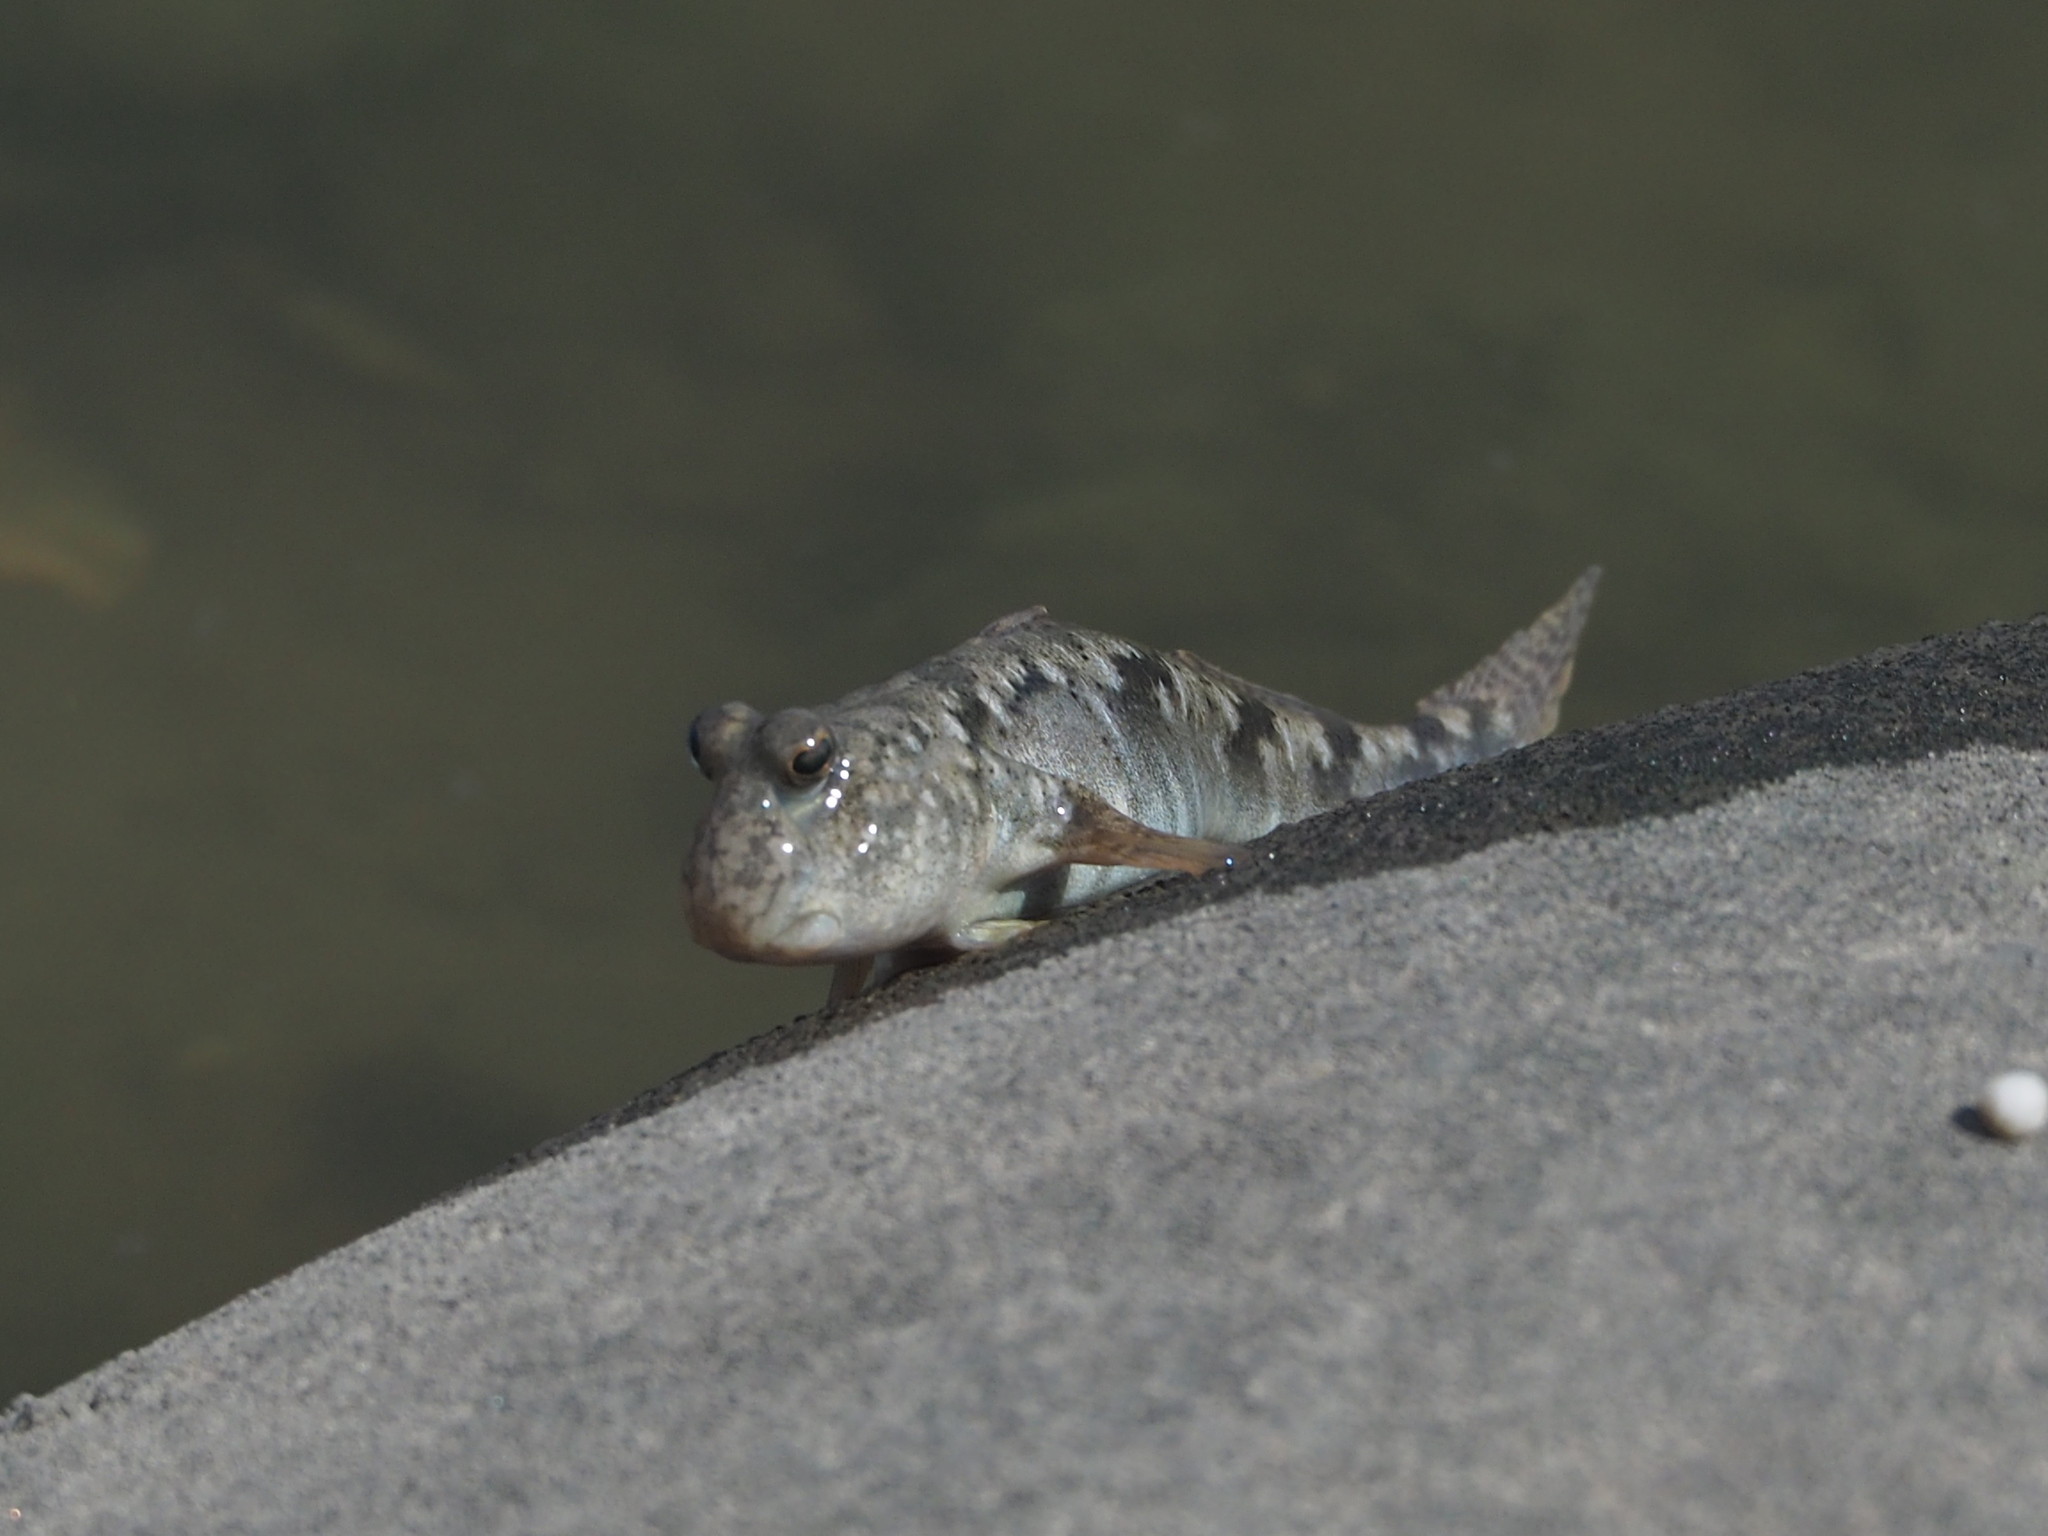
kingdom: Animalia
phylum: Chordata
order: Perciformes
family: Gobiidae
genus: Periophthalmus
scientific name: Periophthalmus modestus
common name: Black goby
